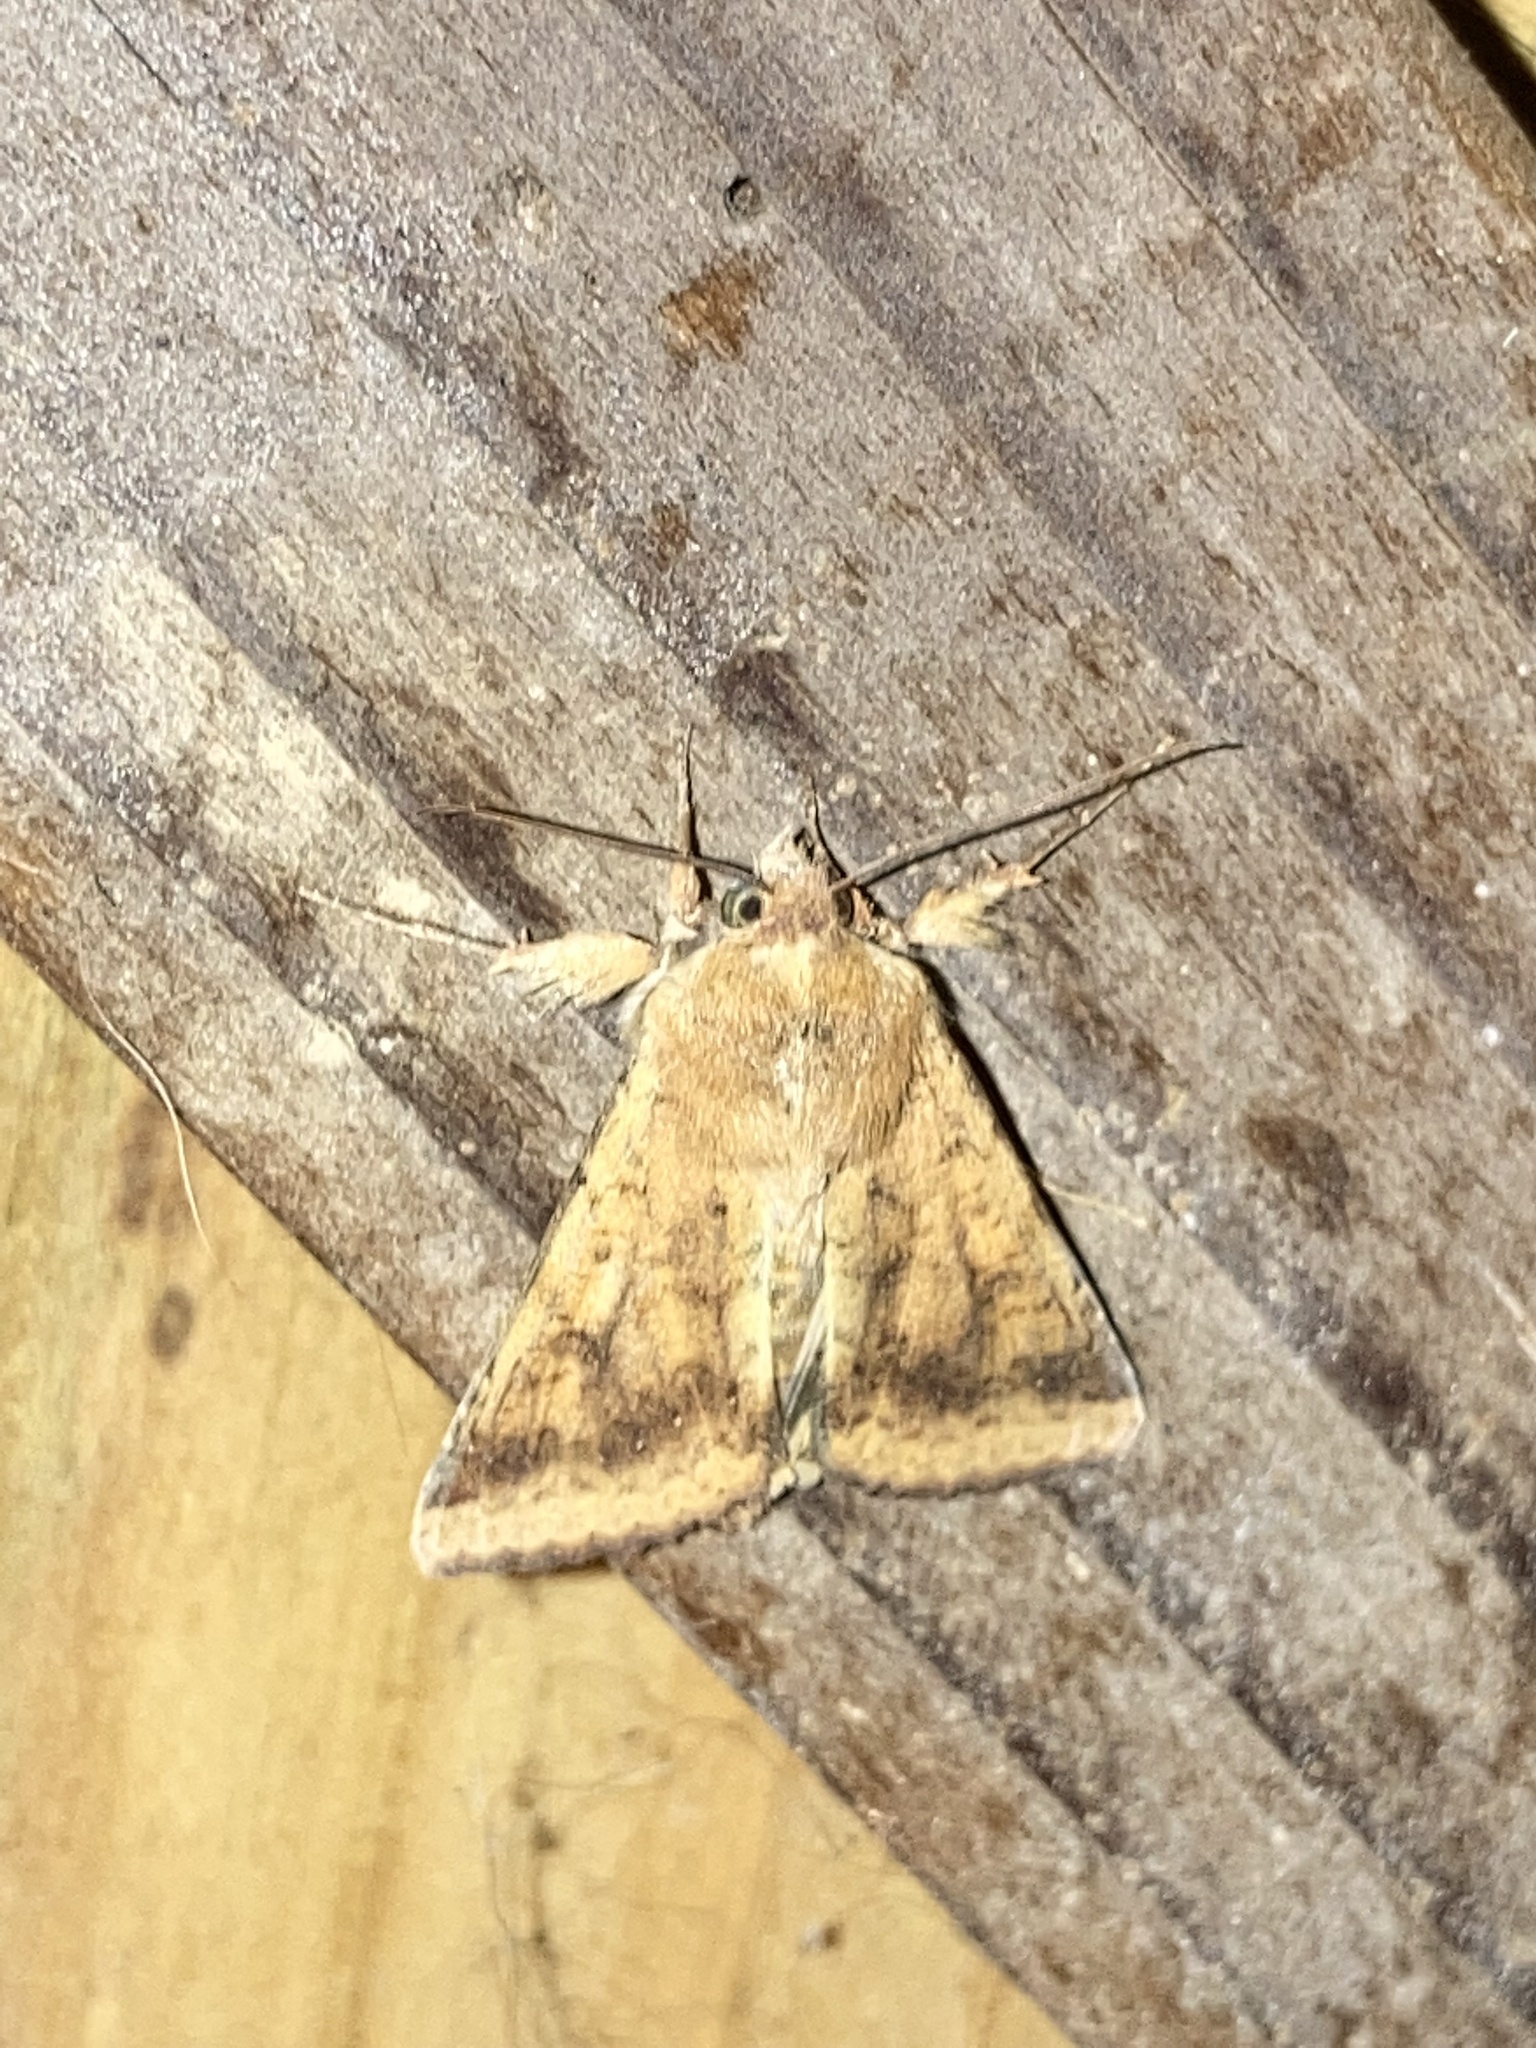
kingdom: Animalia
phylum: Arthropoda
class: Insecta
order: Lepidoptera
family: Noctuidae
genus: Helicoverpa
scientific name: Helicoverpa zea
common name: Bollworm
